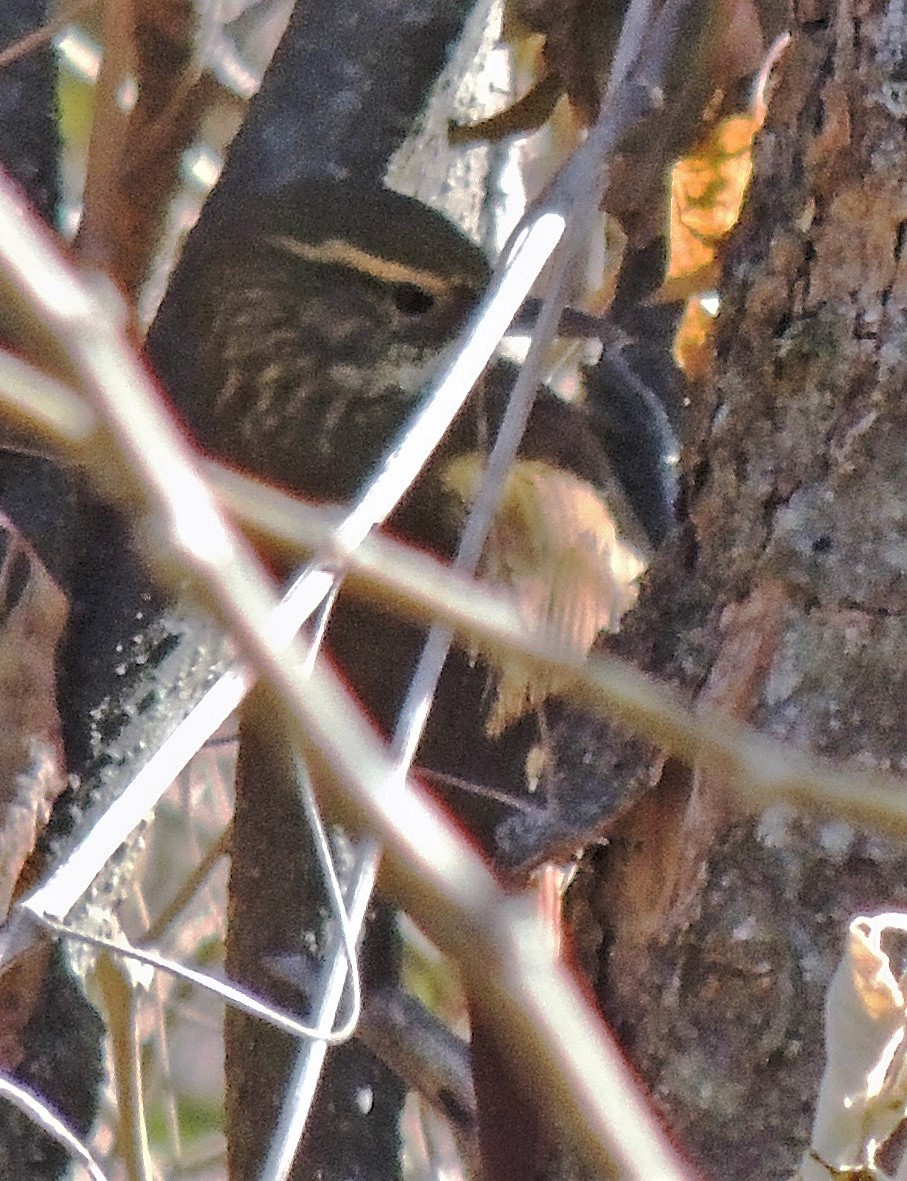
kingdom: Animalia
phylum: Chordata
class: Aves
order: Passeriformes
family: Furnariidae
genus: Syndactyla
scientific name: Syndactyla rufosuperciliata
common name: Buff-browed foliage-gleaner
